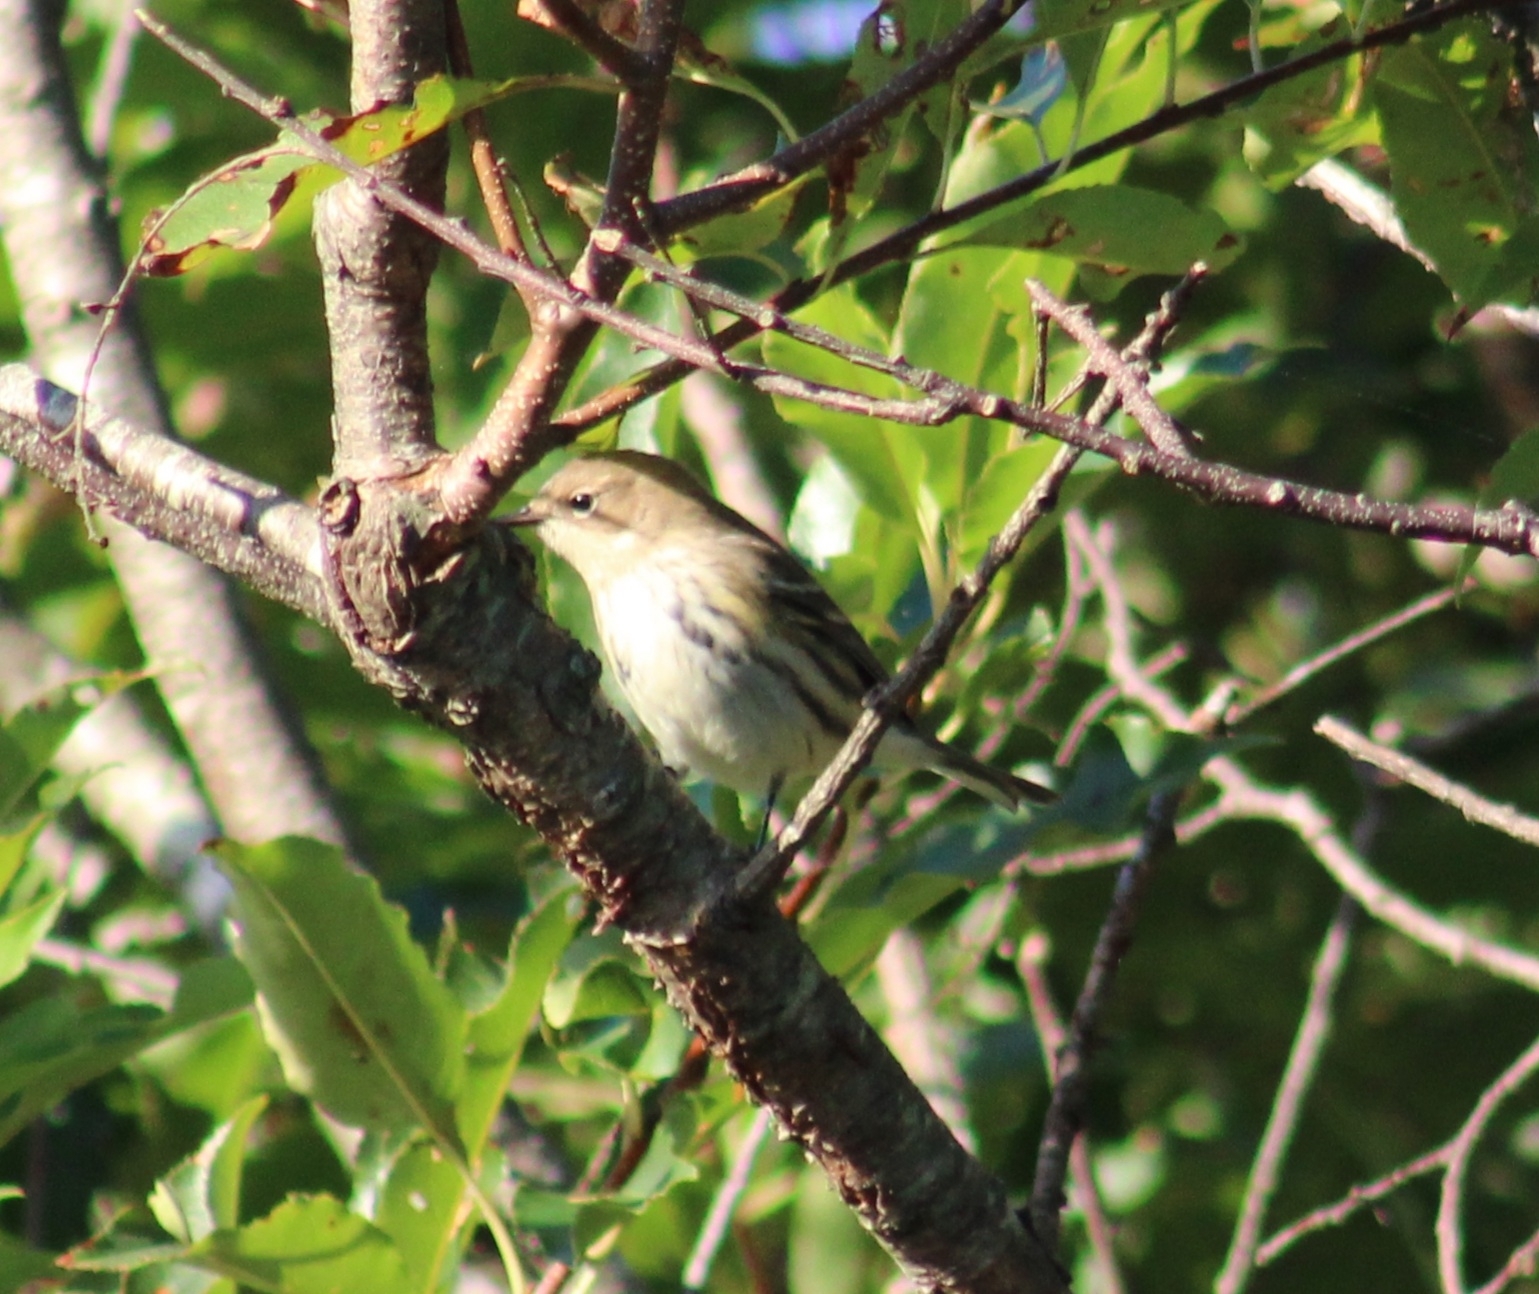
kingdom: Animalia
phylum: Chordata
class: Aves
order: Passeriformes
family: Parulidae
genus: Setophaga
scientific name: Setophaga coronata
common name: Myrtle warbler
